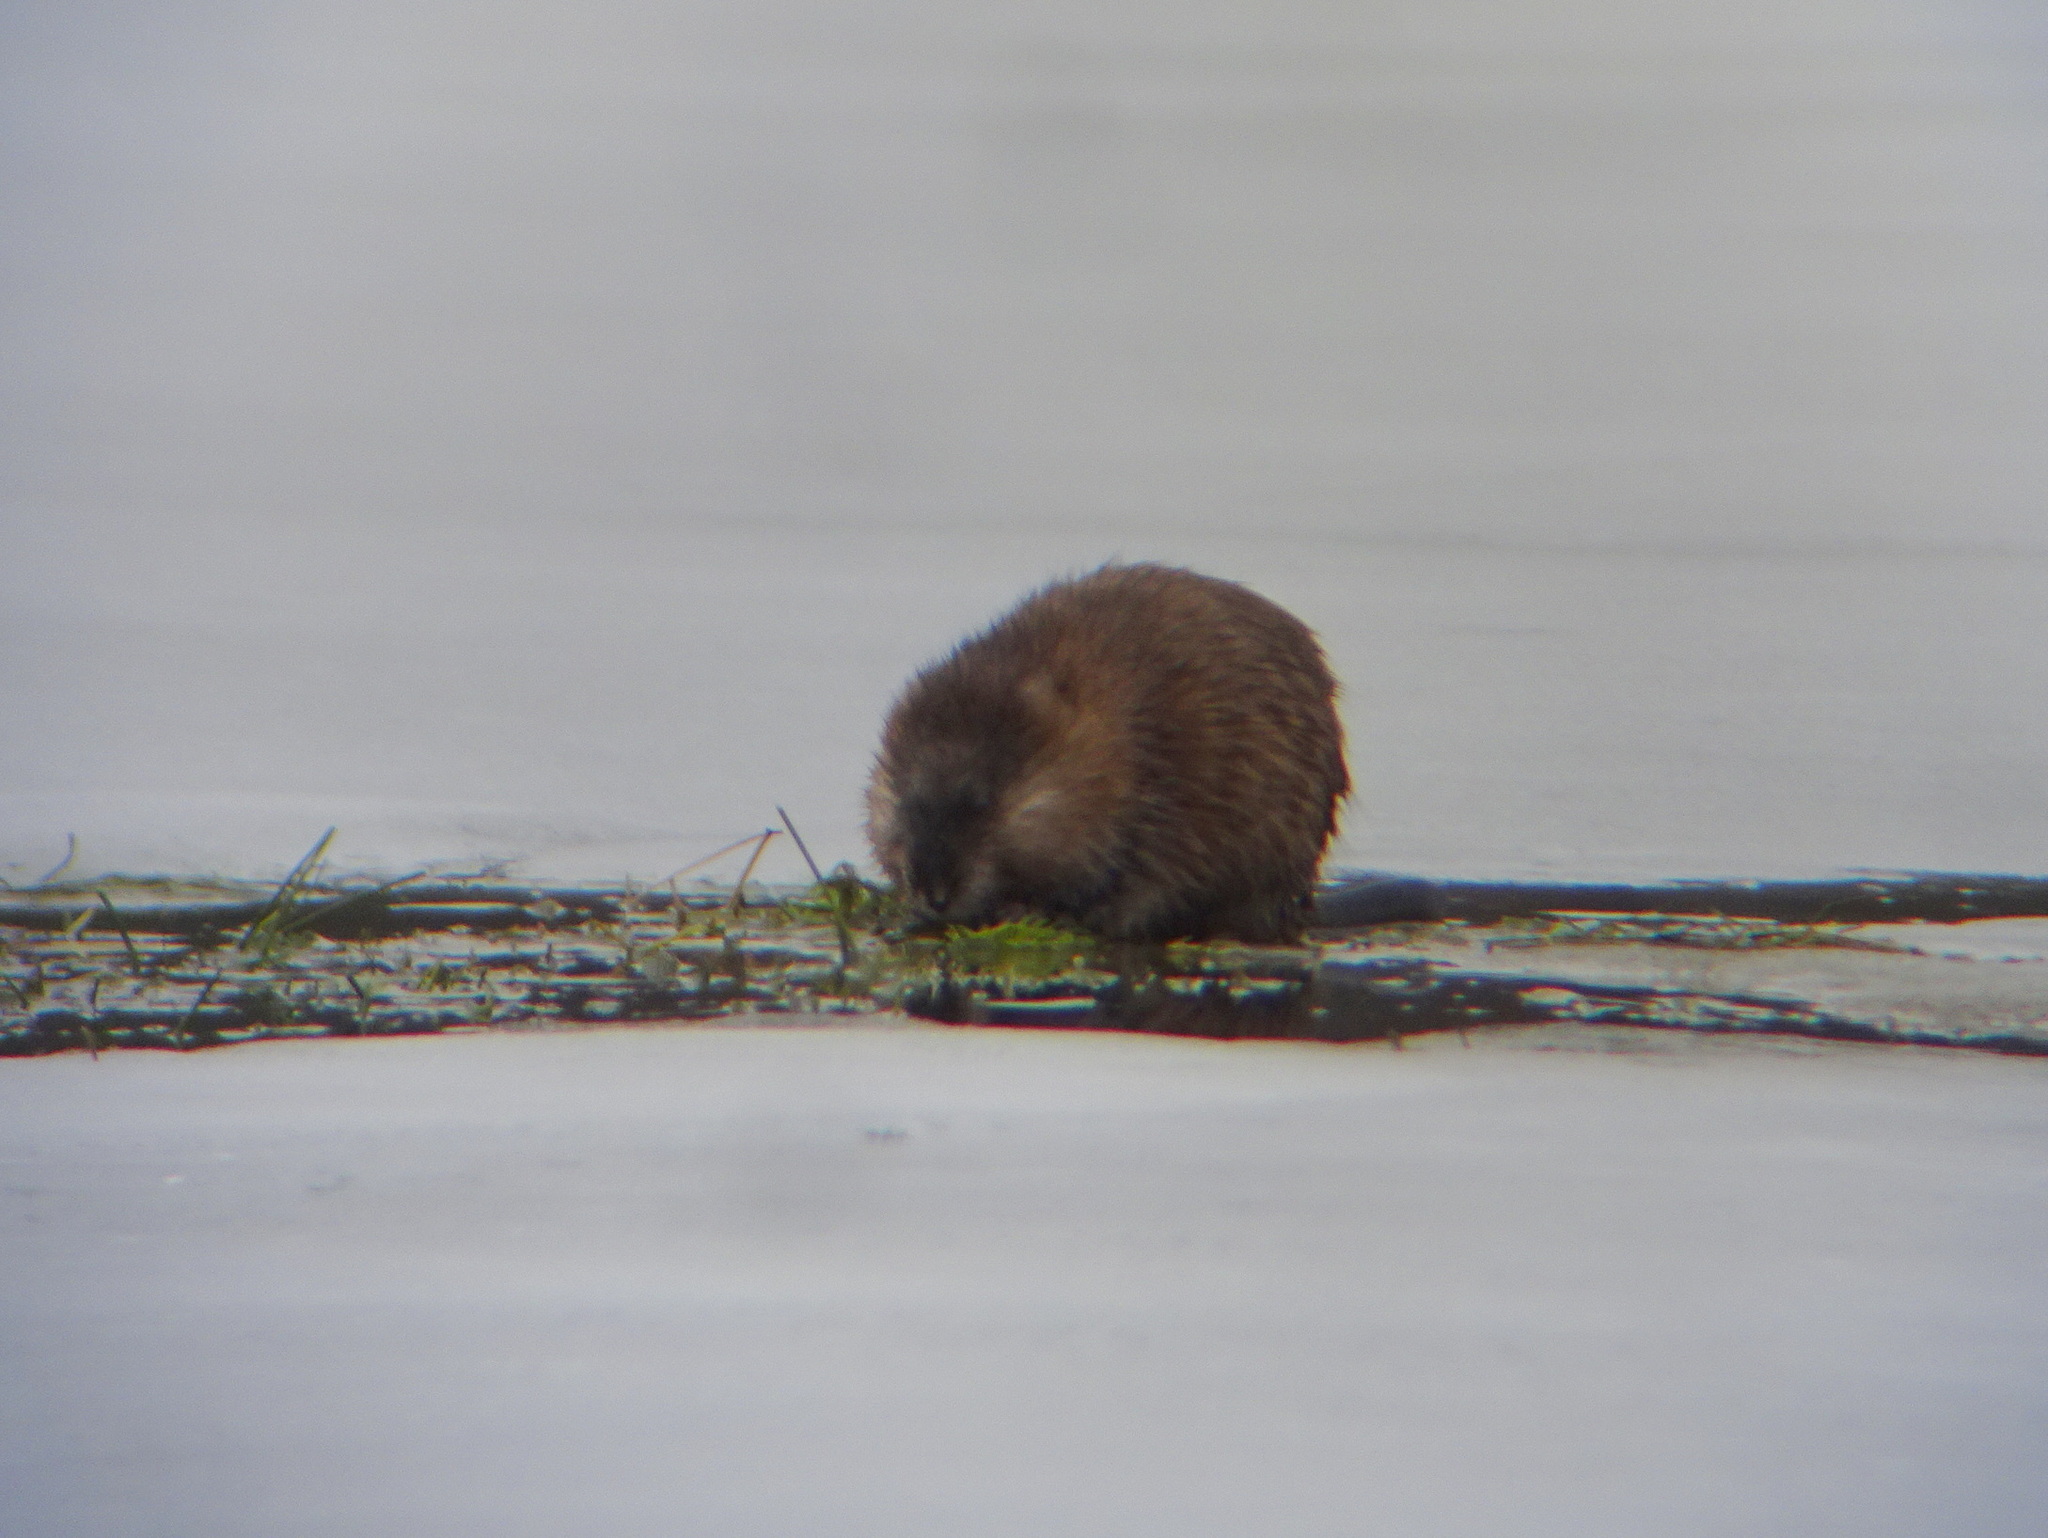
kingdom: Animalia
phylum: Chordata
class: Mammalia
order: Rodentia
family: Cricetidae
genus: Ondatra
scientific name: Ondatra zibethicus
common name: Muskrat
